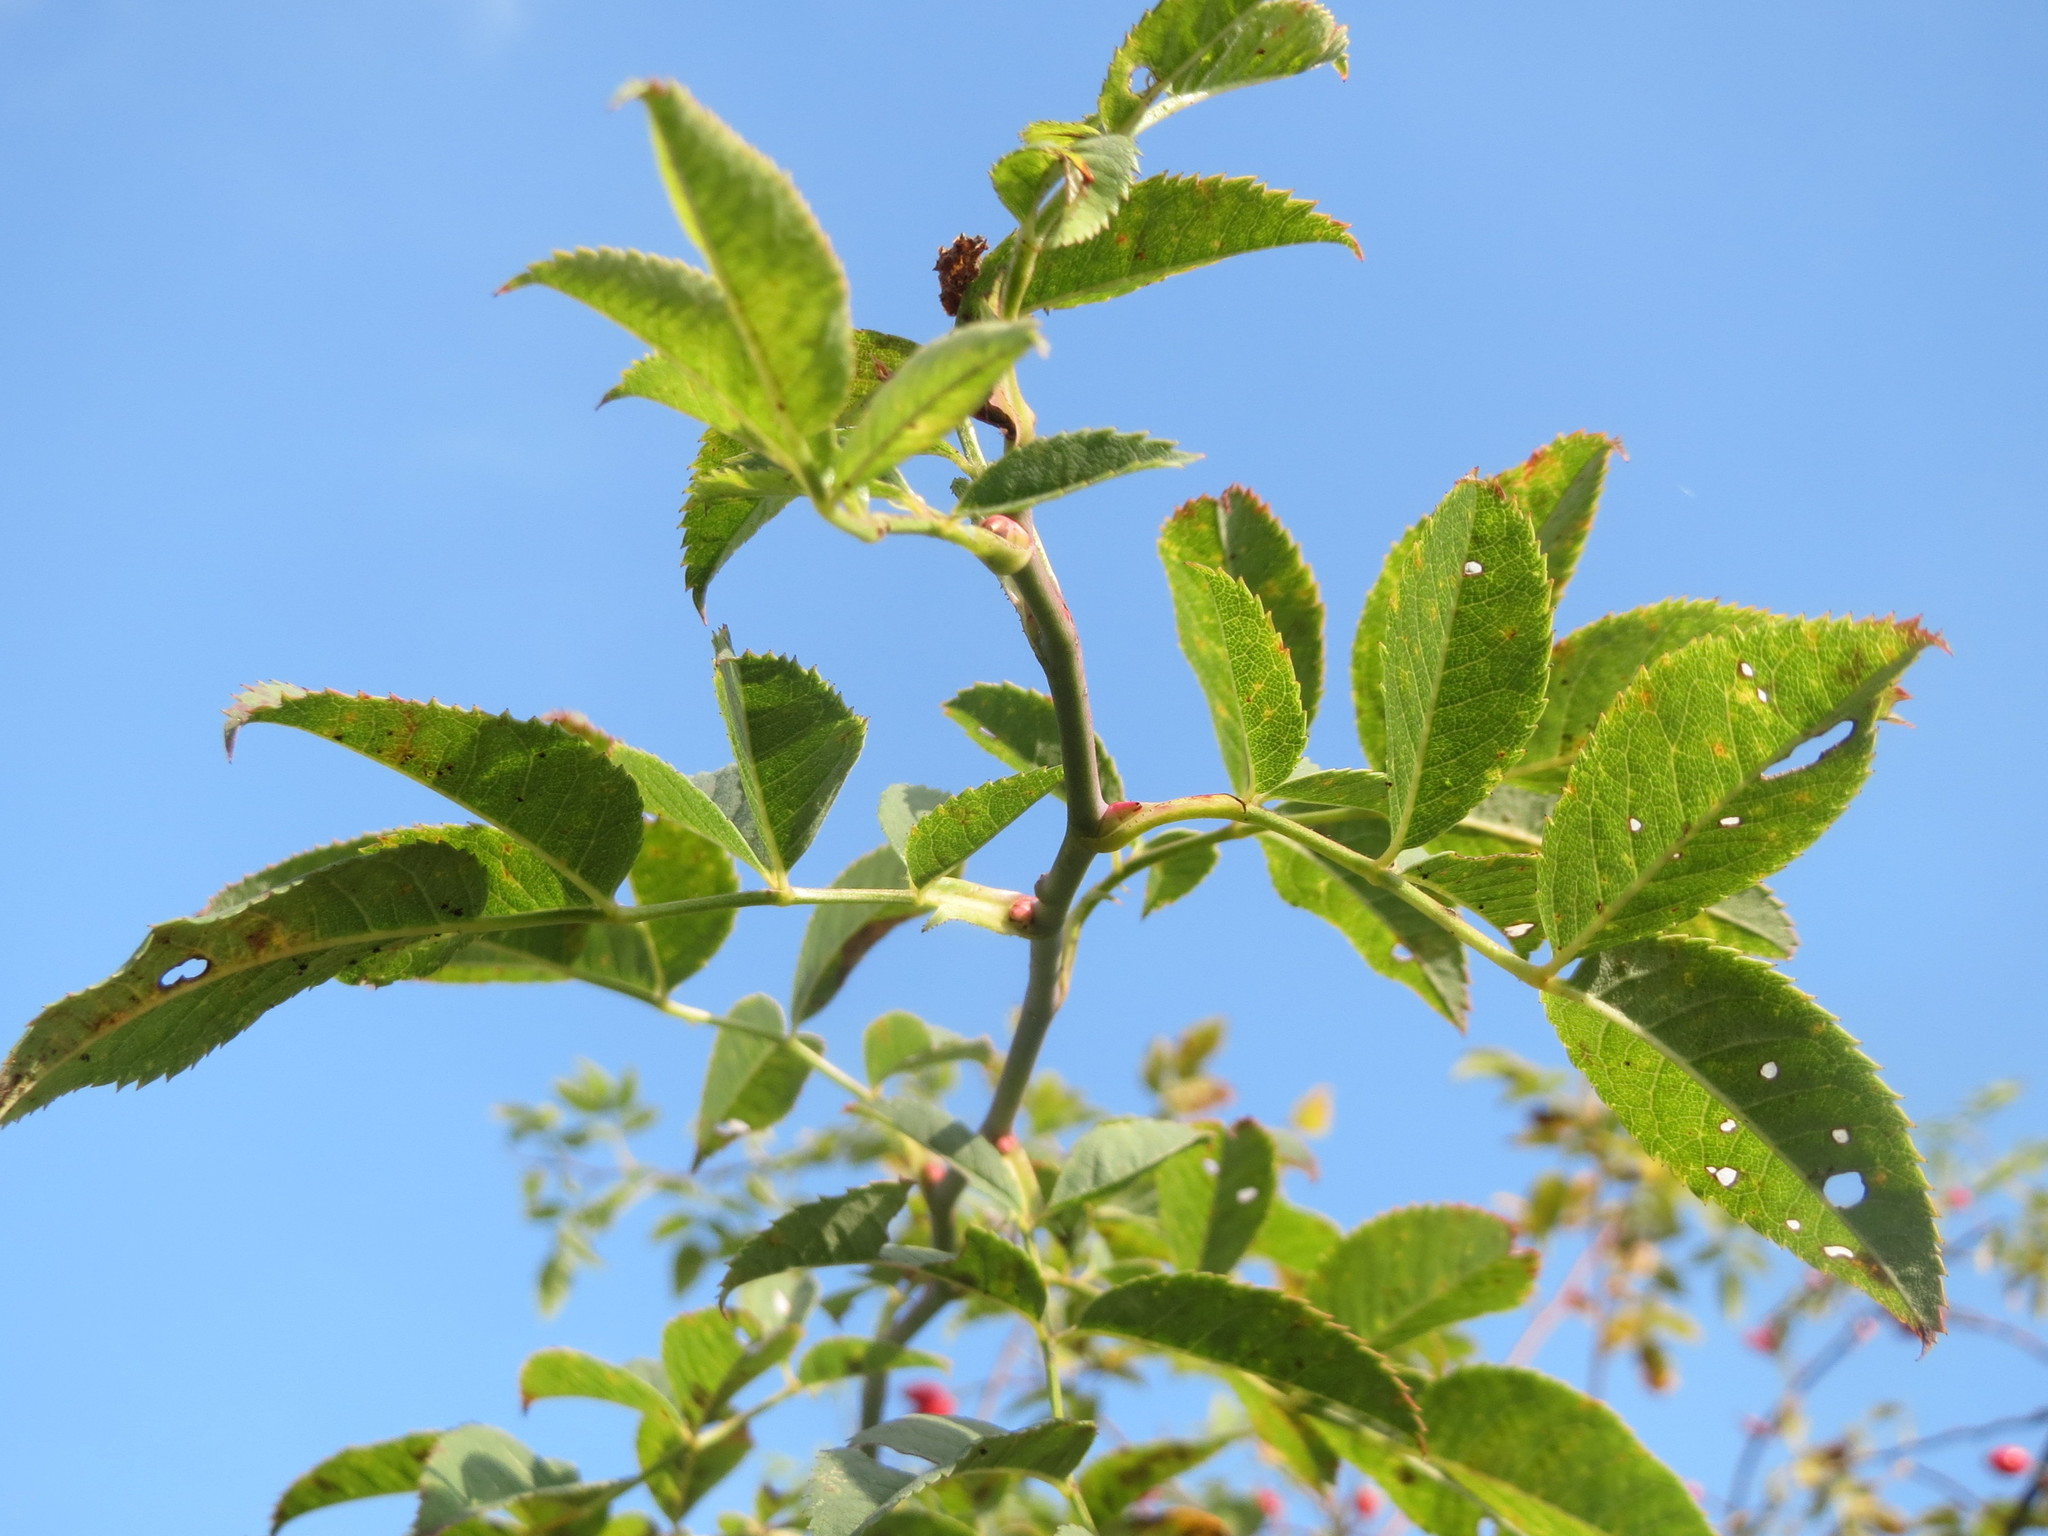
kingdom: Plantae
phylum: Tracheophyta
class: Magnoliopsida
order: Rosales
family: Rosaceae
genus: Rosa
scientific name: Rosa canina
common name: Dog rose
